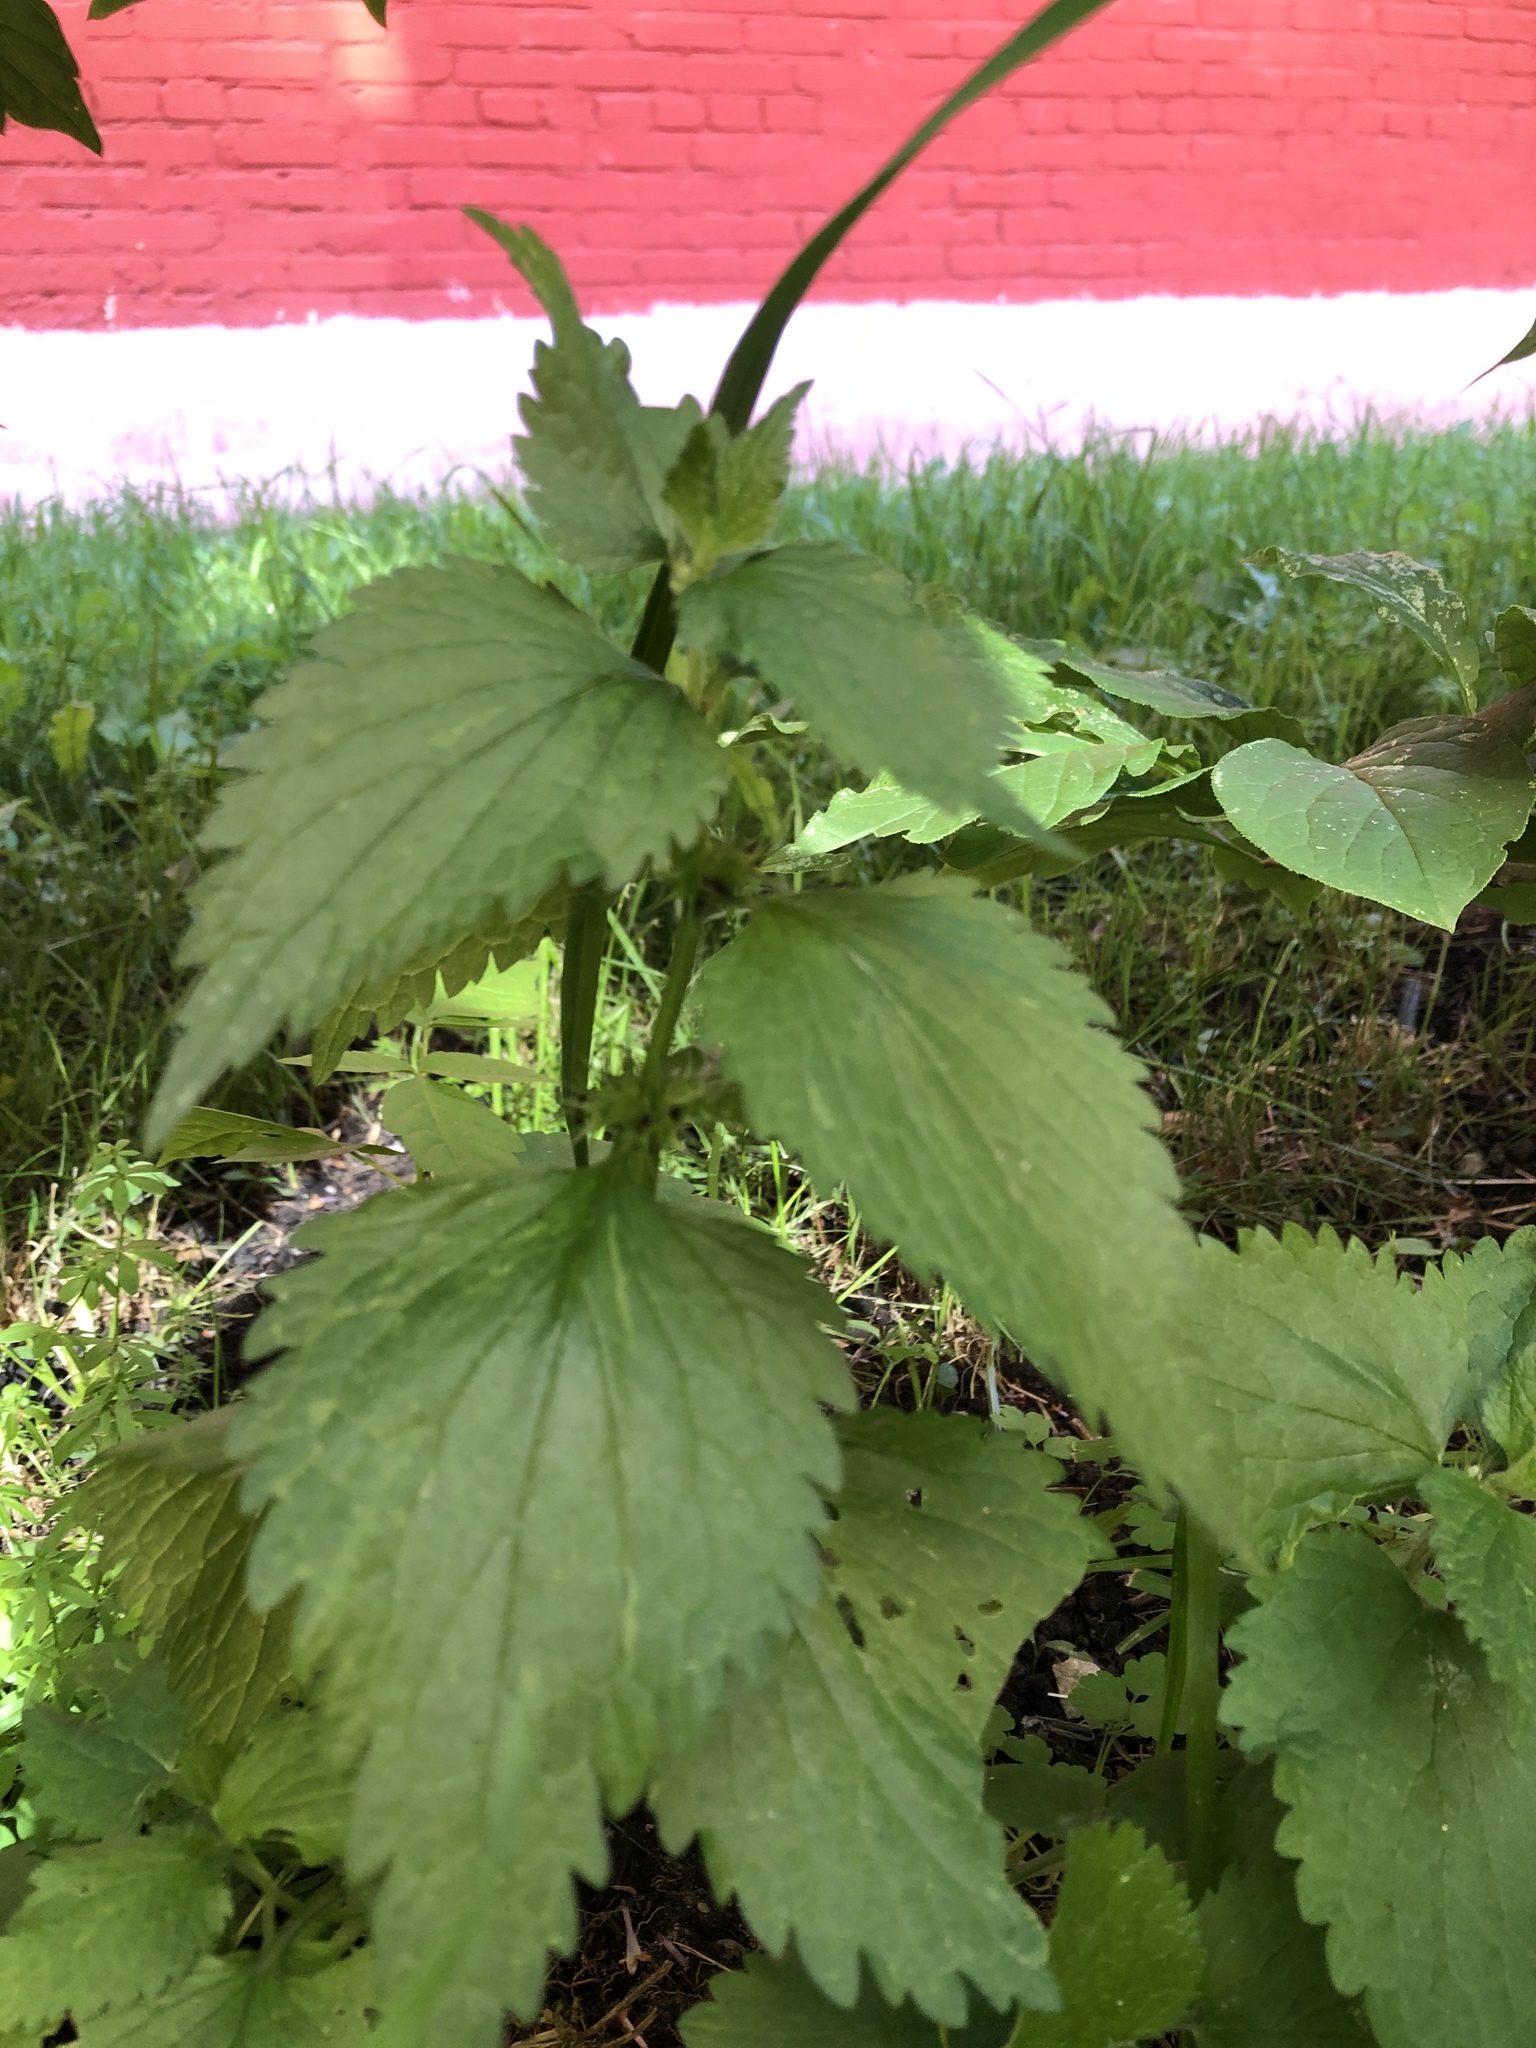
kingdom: Plantae
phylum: Tracheophyta
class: Magnoliopsida
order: Lamiales
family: Lamiaceae
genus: Lamium
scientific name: Lamium album
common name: White dead-nettle
